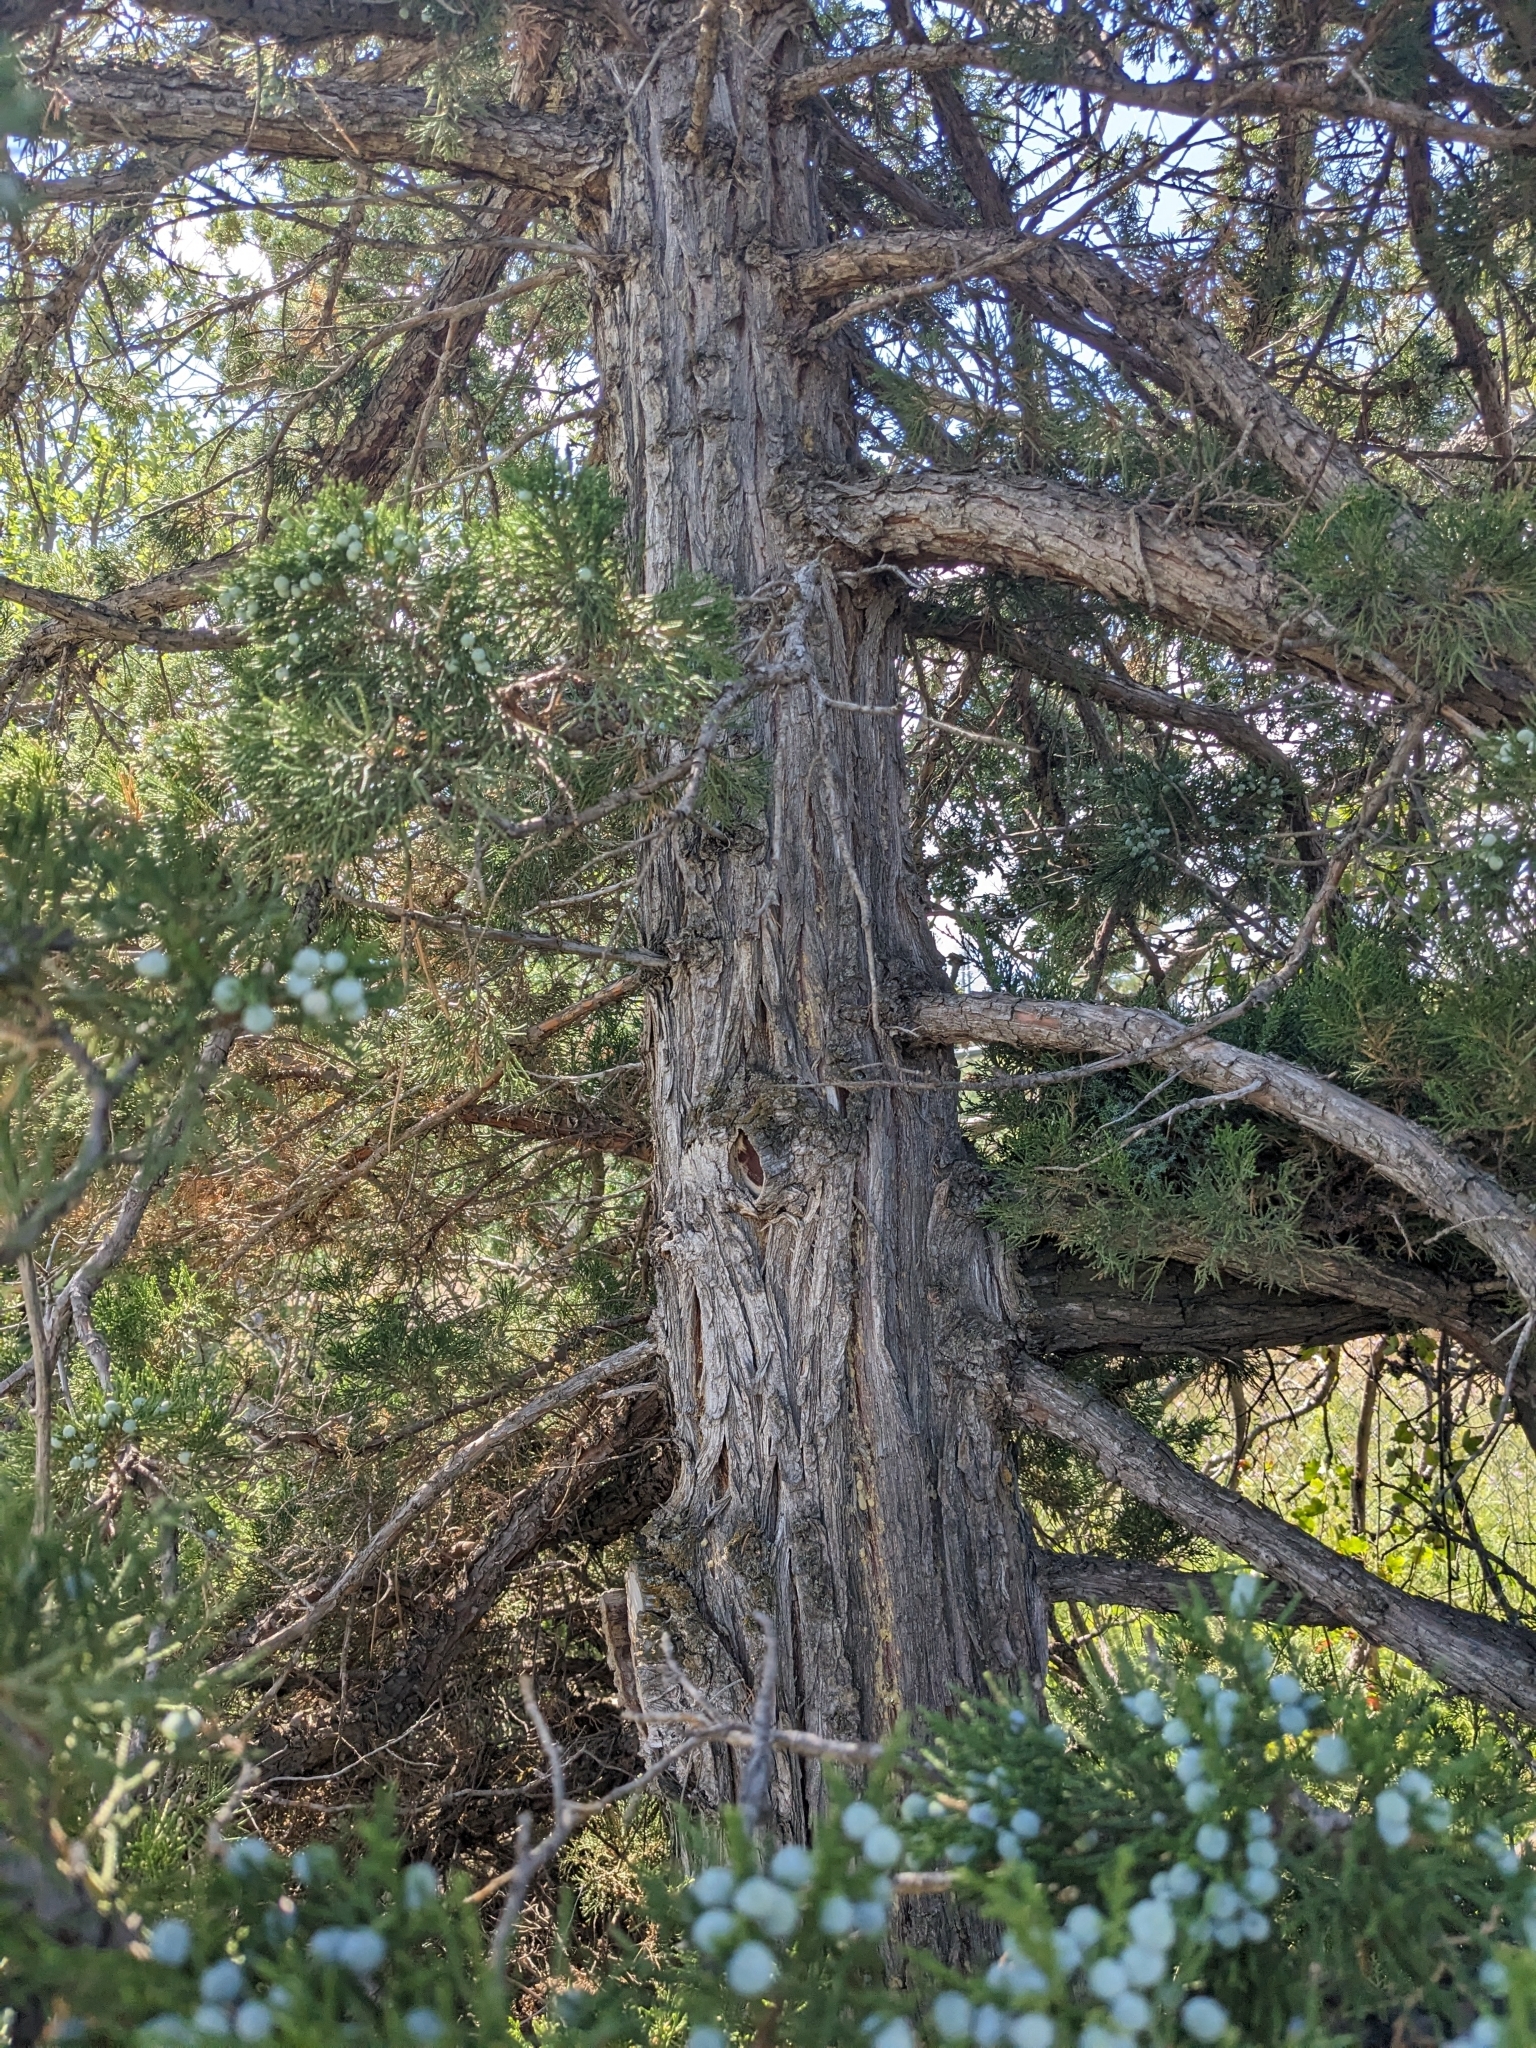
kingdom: Plantae
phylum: Tracheophyta
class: Pinopsida
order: Pinales
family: Cupressaceae
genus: Juniperus
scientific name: Juniperus scopulorum
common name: Rocky mountain juniper
